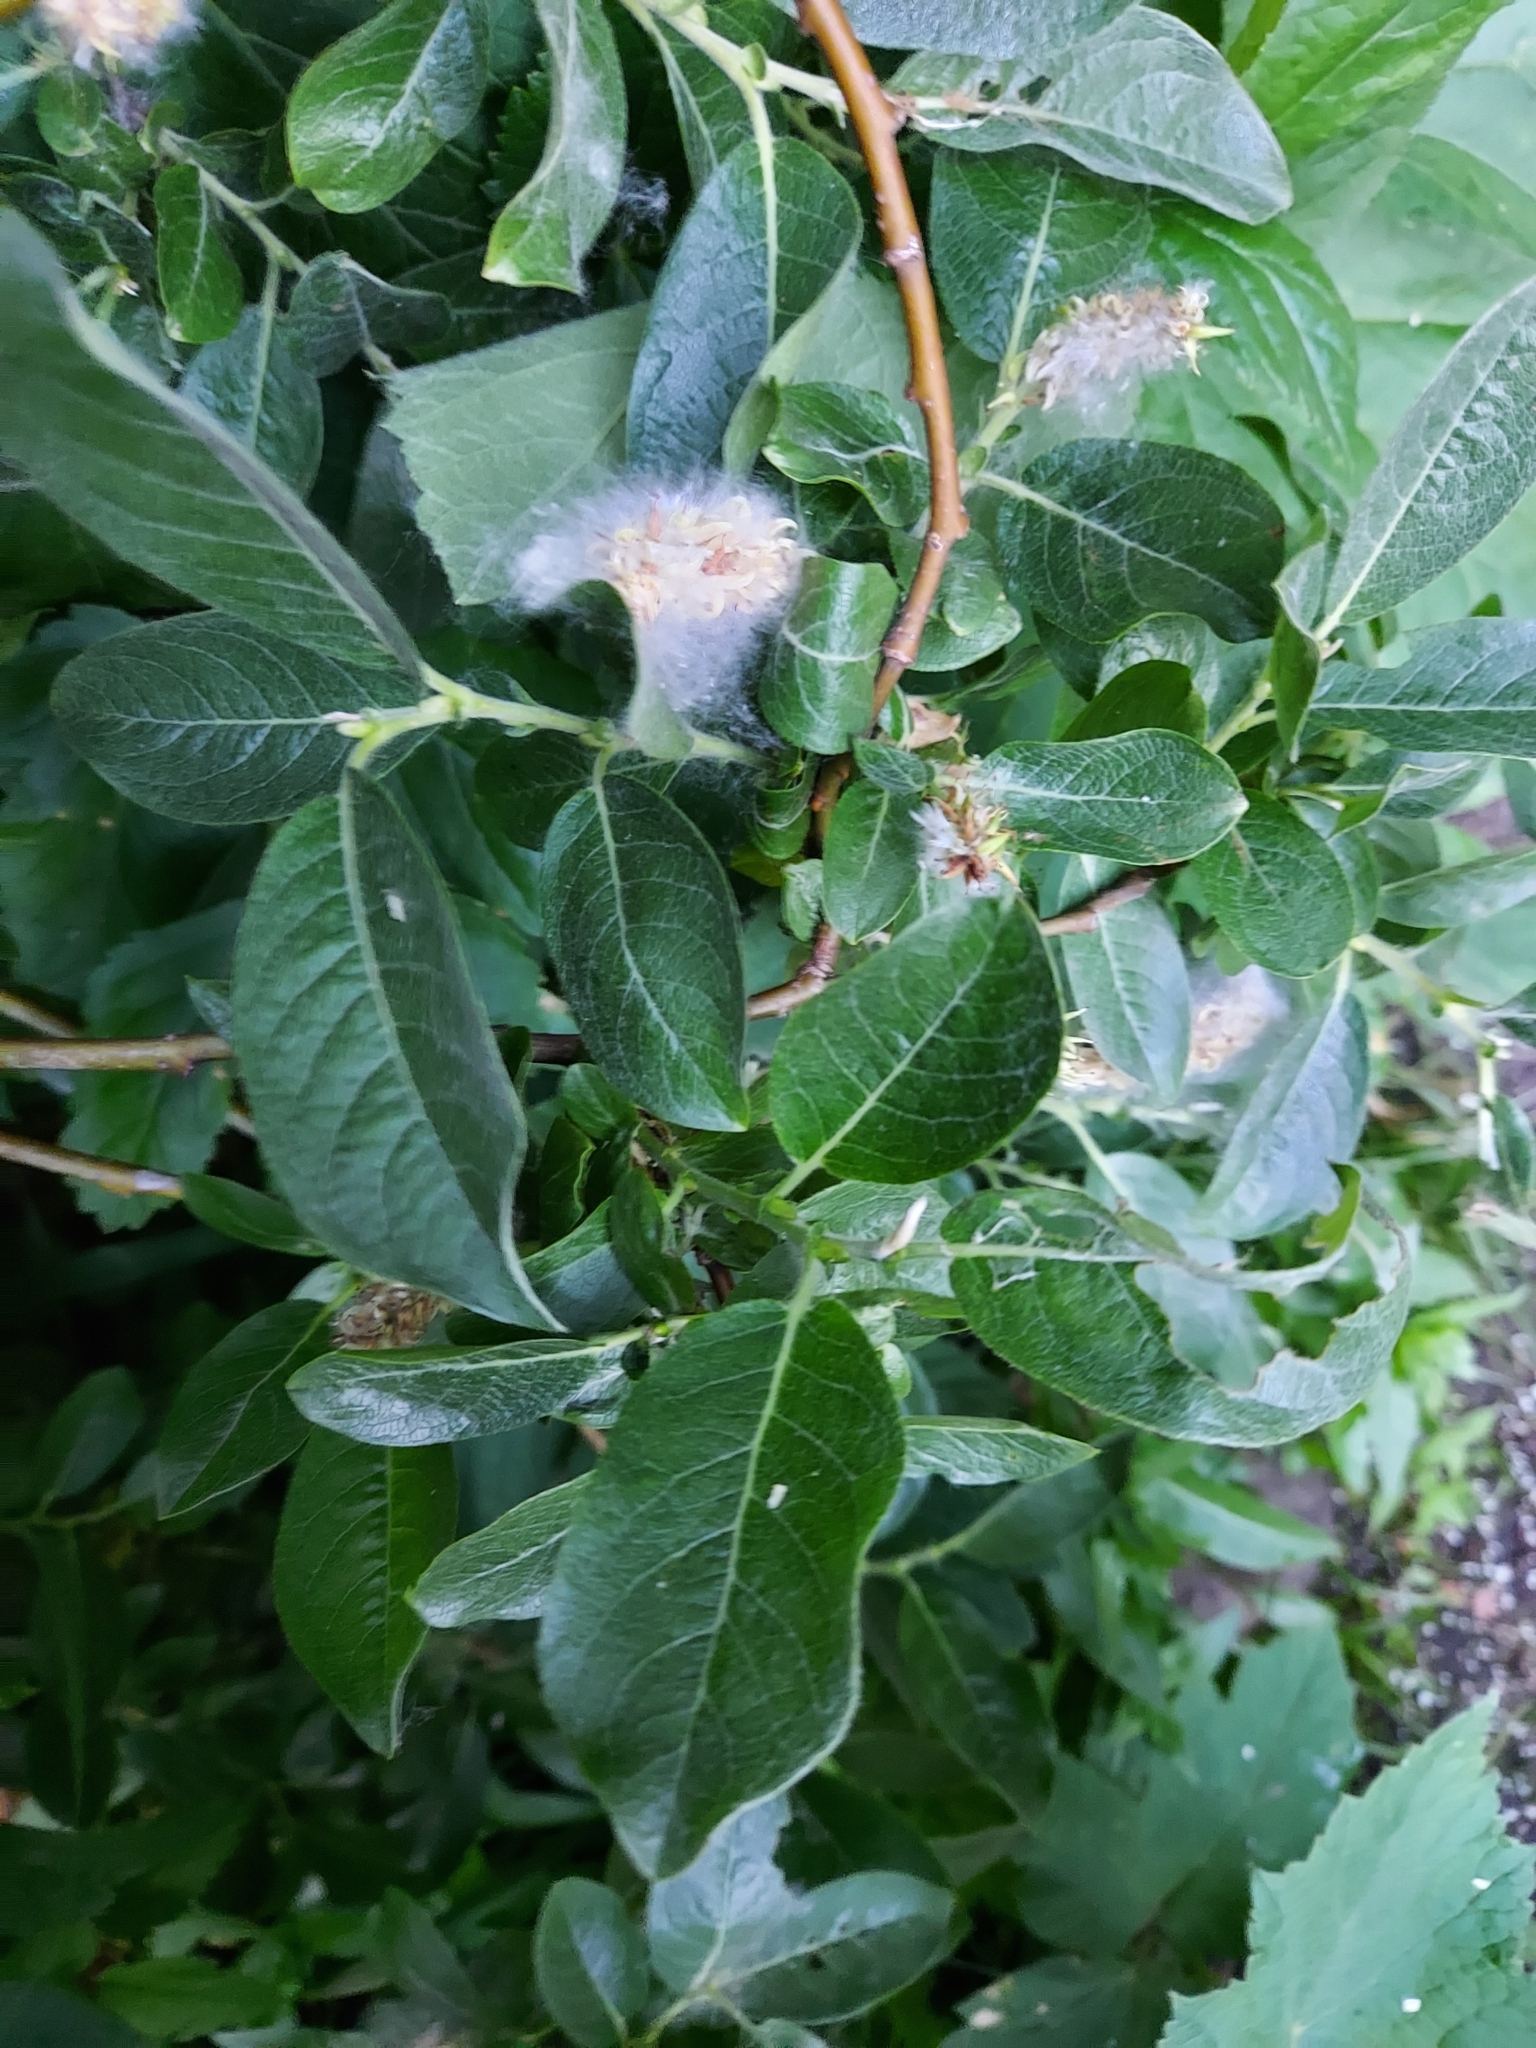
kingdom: Plantae
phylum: Tracheophyta
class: Magnoliopsida
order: Malpighiales
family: Salicaceae
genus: Salix
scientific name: Salix commutata
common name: Under-green willow
